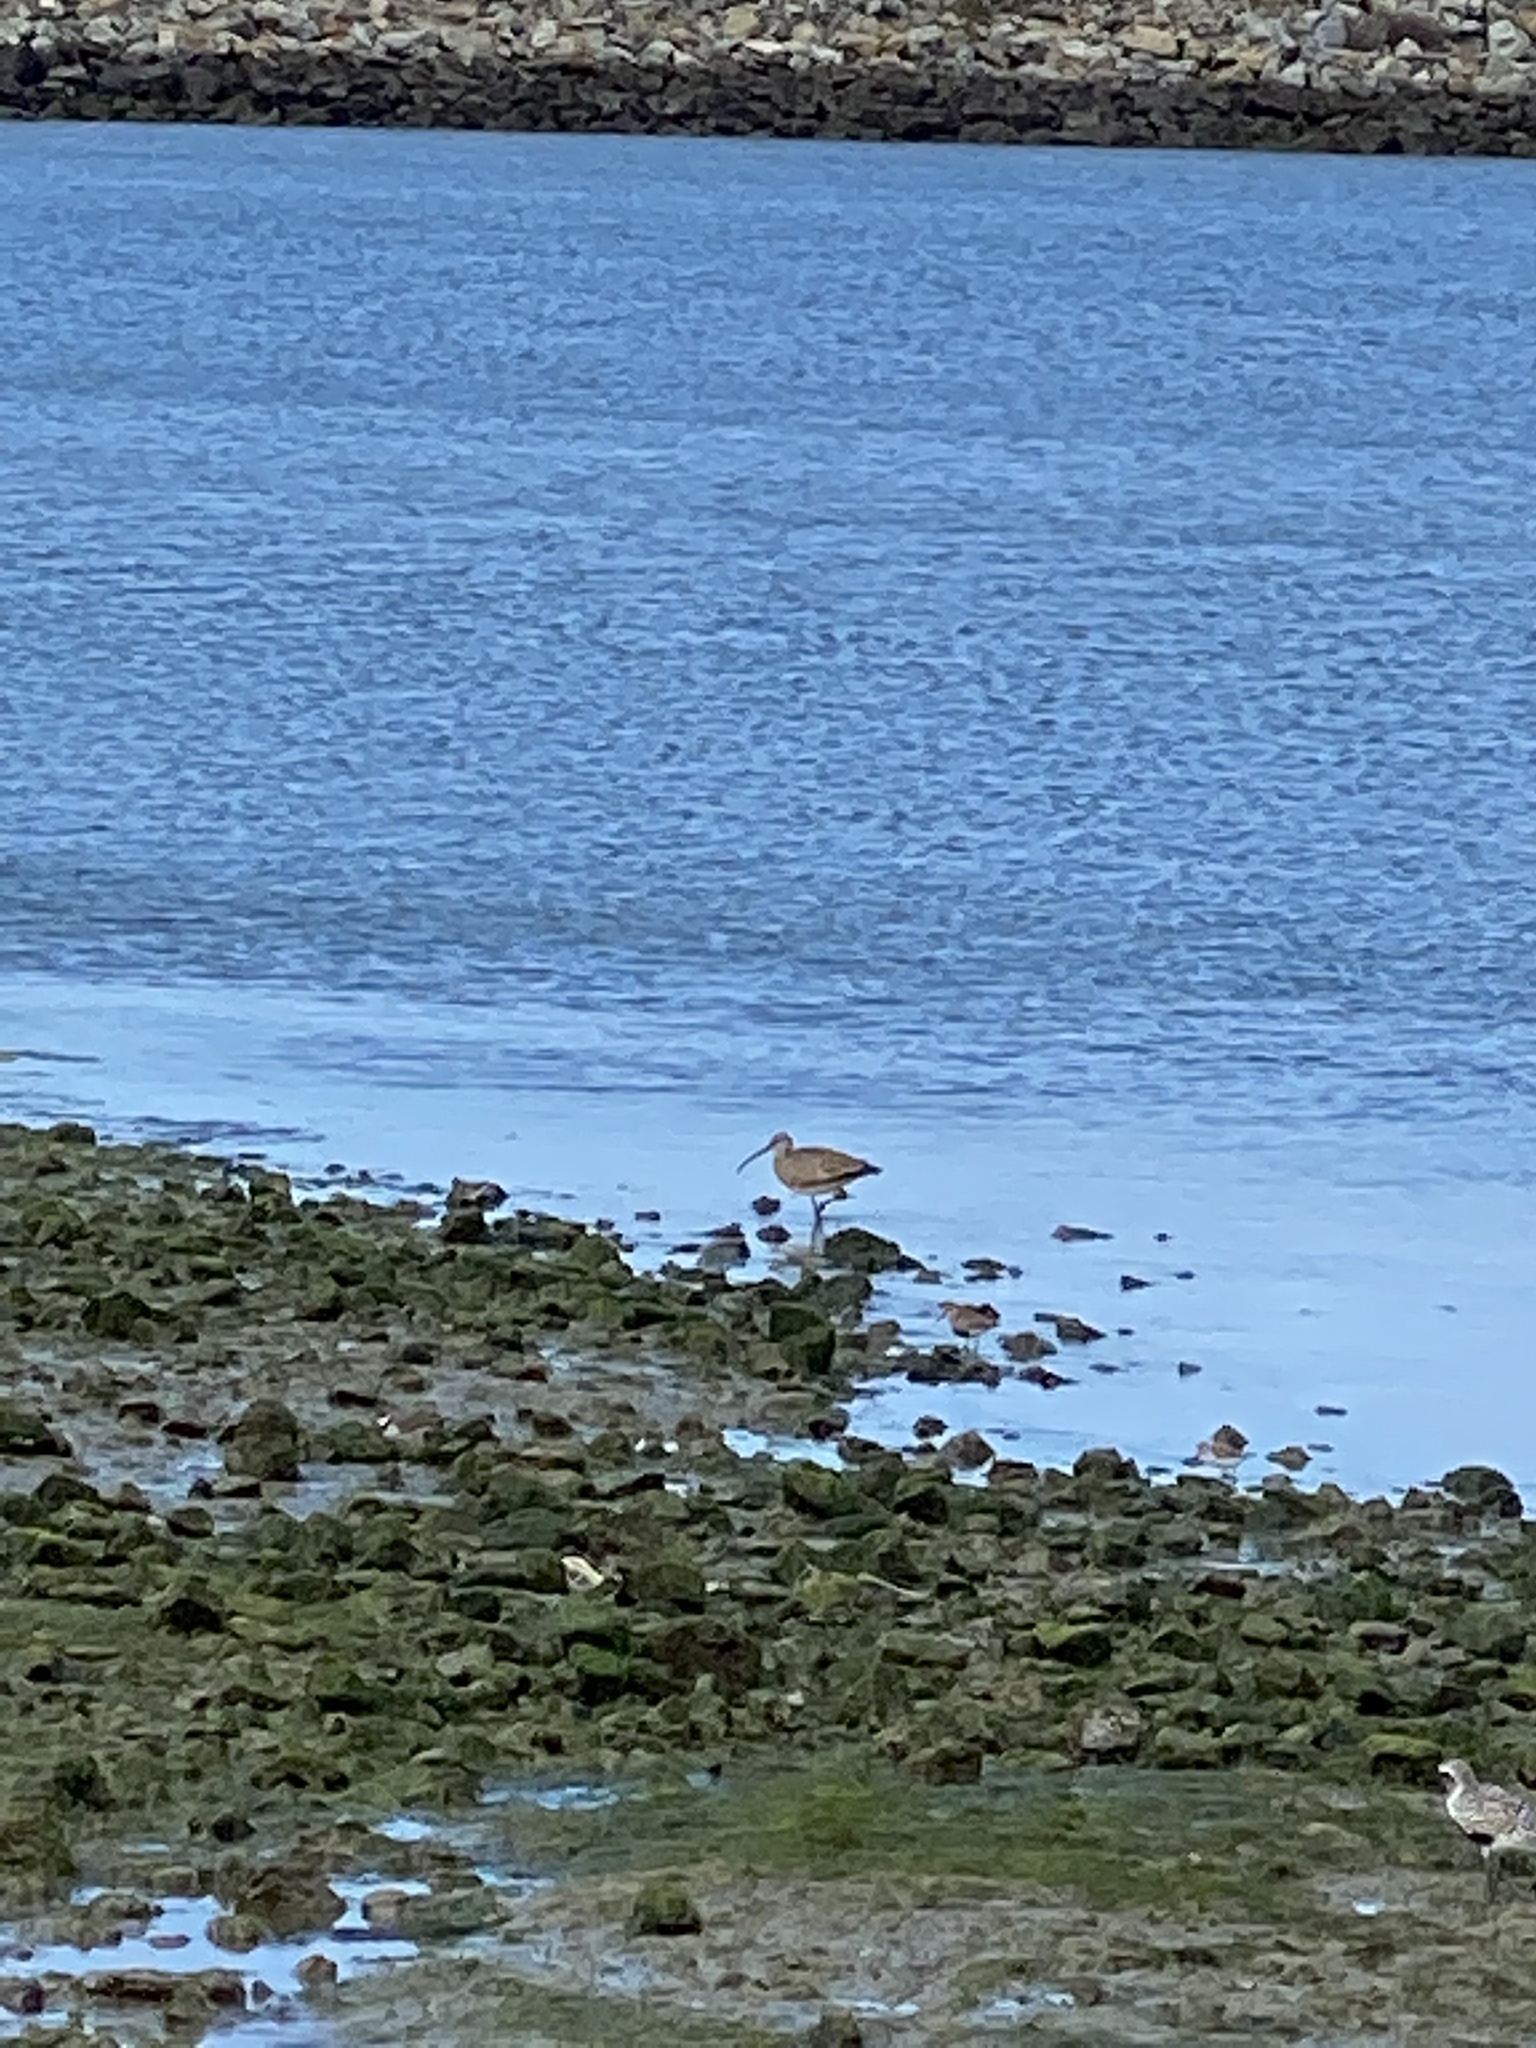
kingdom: Animalia
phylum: Chordata
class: Aves
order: Charadriiformes
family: Scolopacidae
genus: Numenius
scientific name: Numenius phaeopus
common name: Whimbrel
